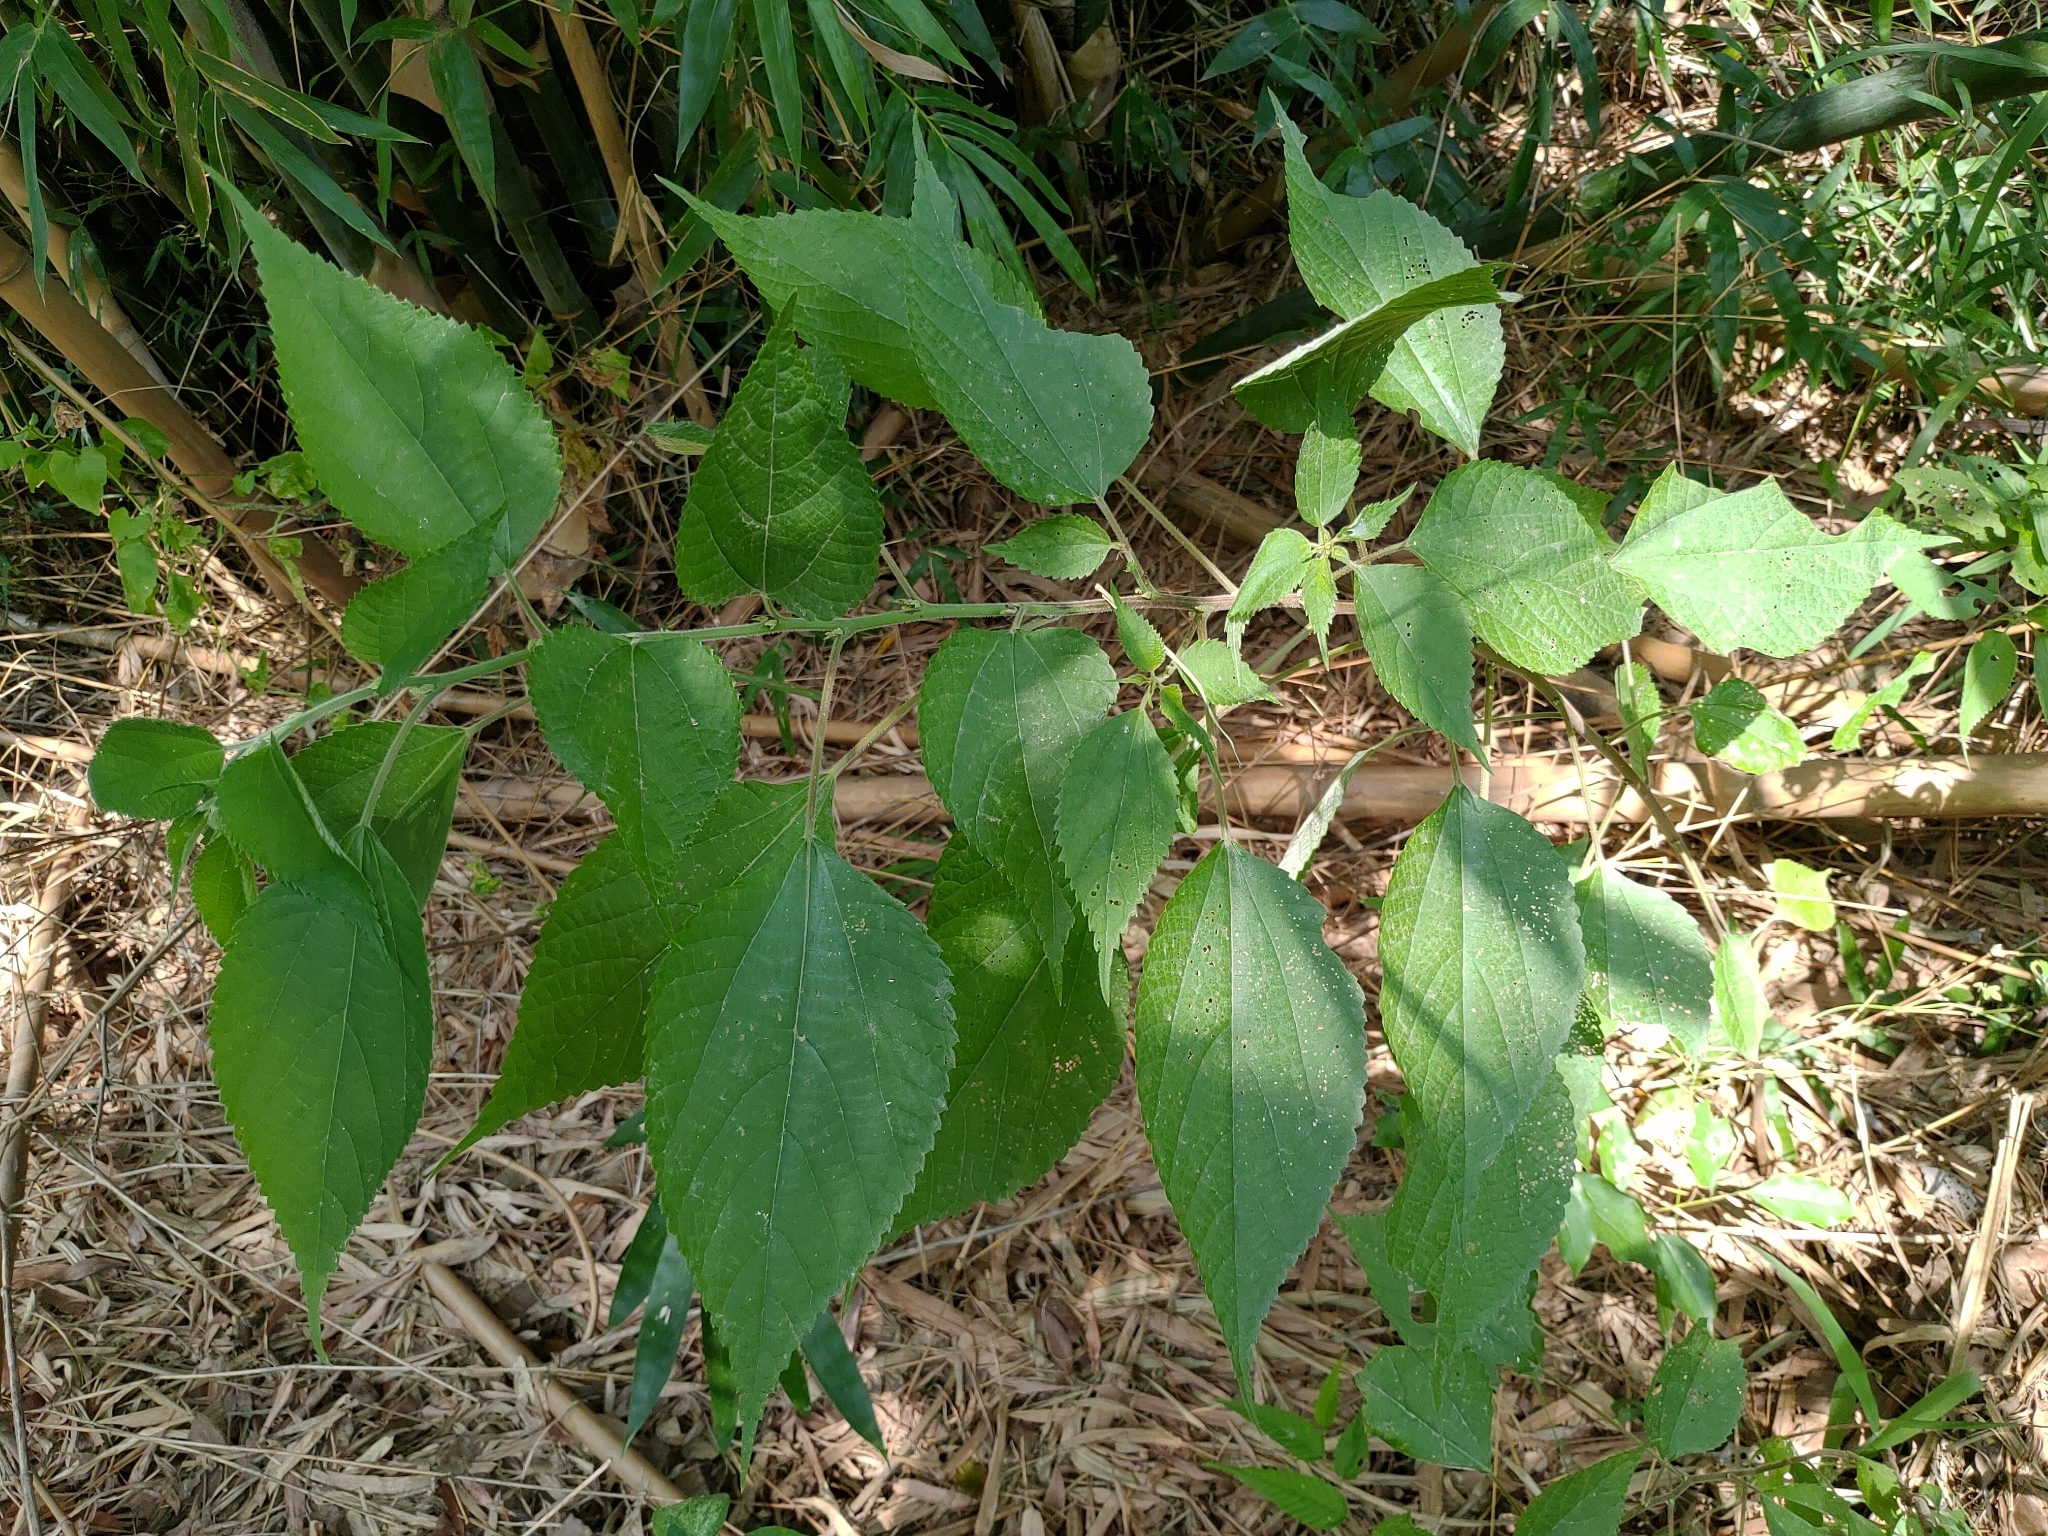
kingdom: Plantae
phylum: Tracheophyta
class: Magnoliopsida
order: Rosales
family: Urticaceae
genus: Boehmeria
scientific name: Boehmeria nivea
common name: Ramie chinese grass
